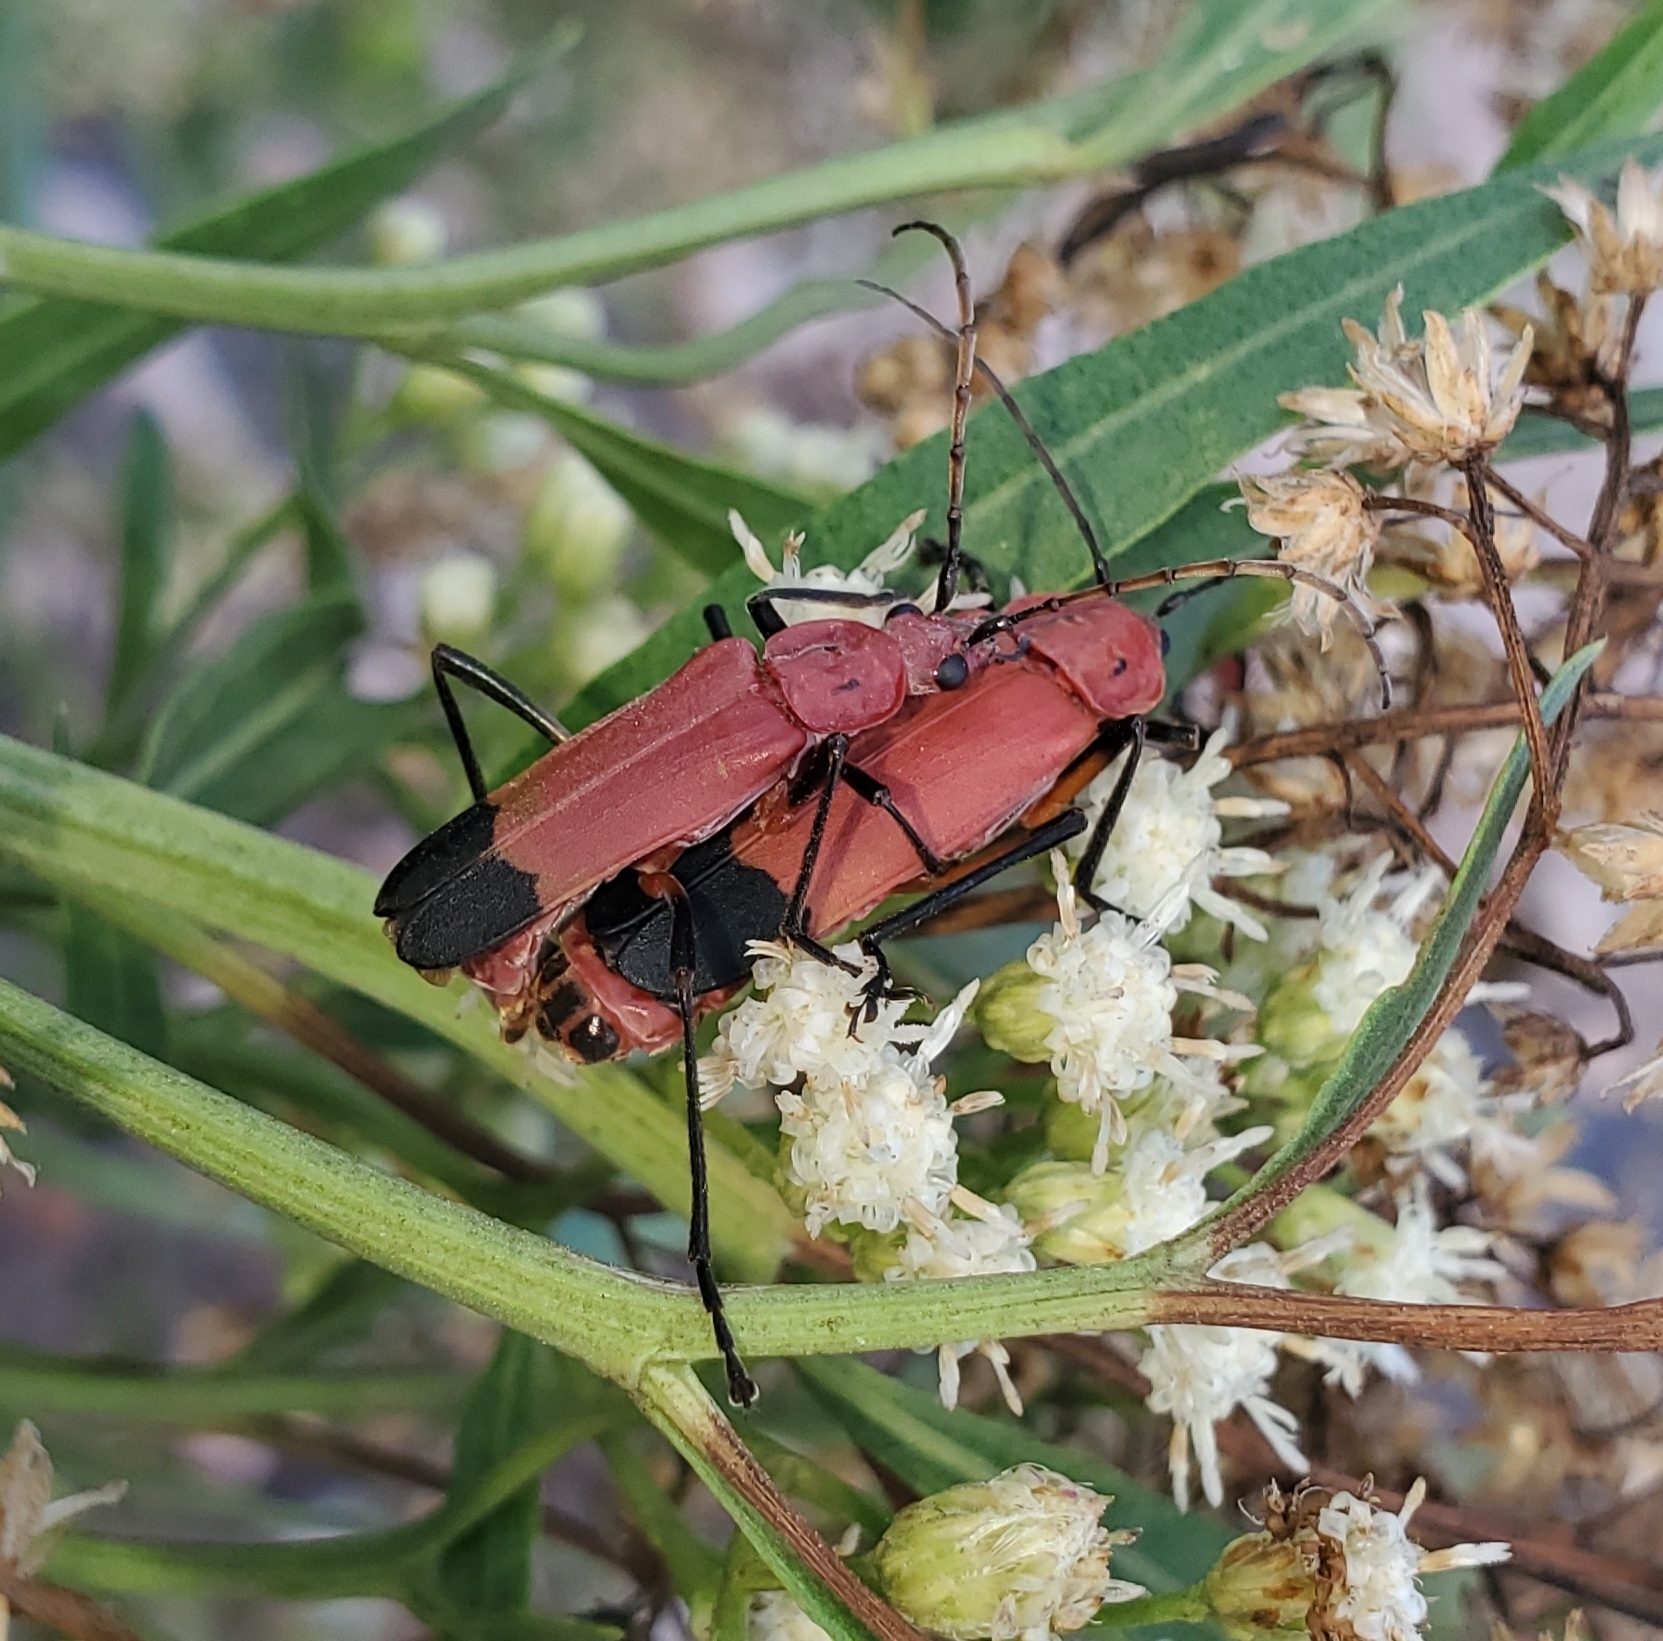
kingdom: Animalia
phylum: Arthropoda
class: Insecta
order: Coleoptera
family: Cantharidae
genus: Chauliognathus
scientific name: Chauliognathus lecontei
